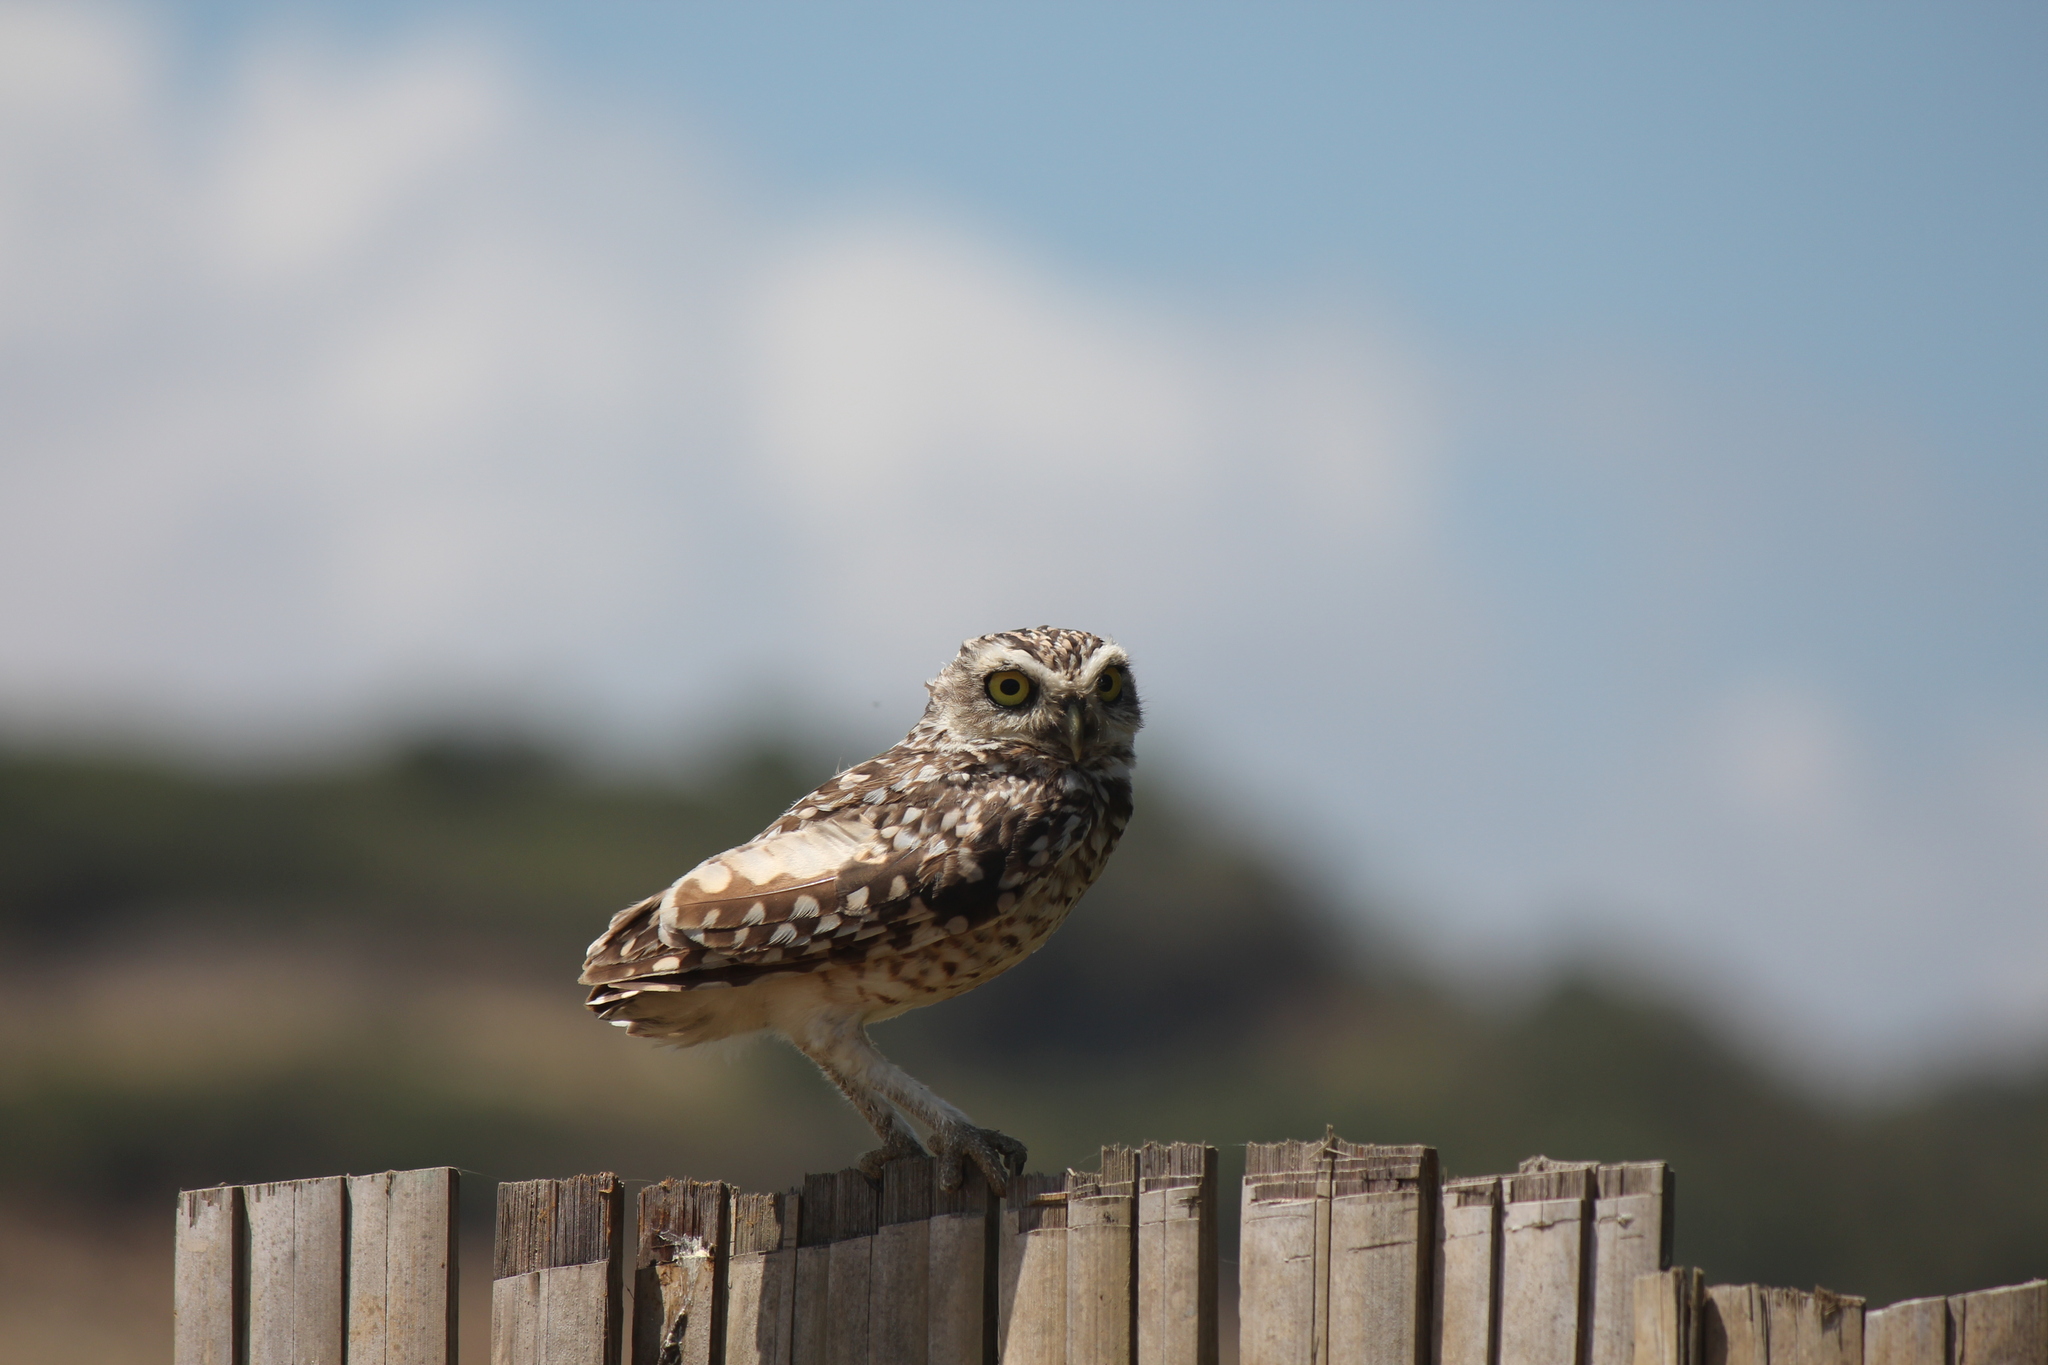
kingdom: Animalia
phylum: Chordata
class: Aves
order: Strigiformes
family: Strigidae
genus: Athene
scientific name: Athene cunicularia
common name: Burrowing owl
